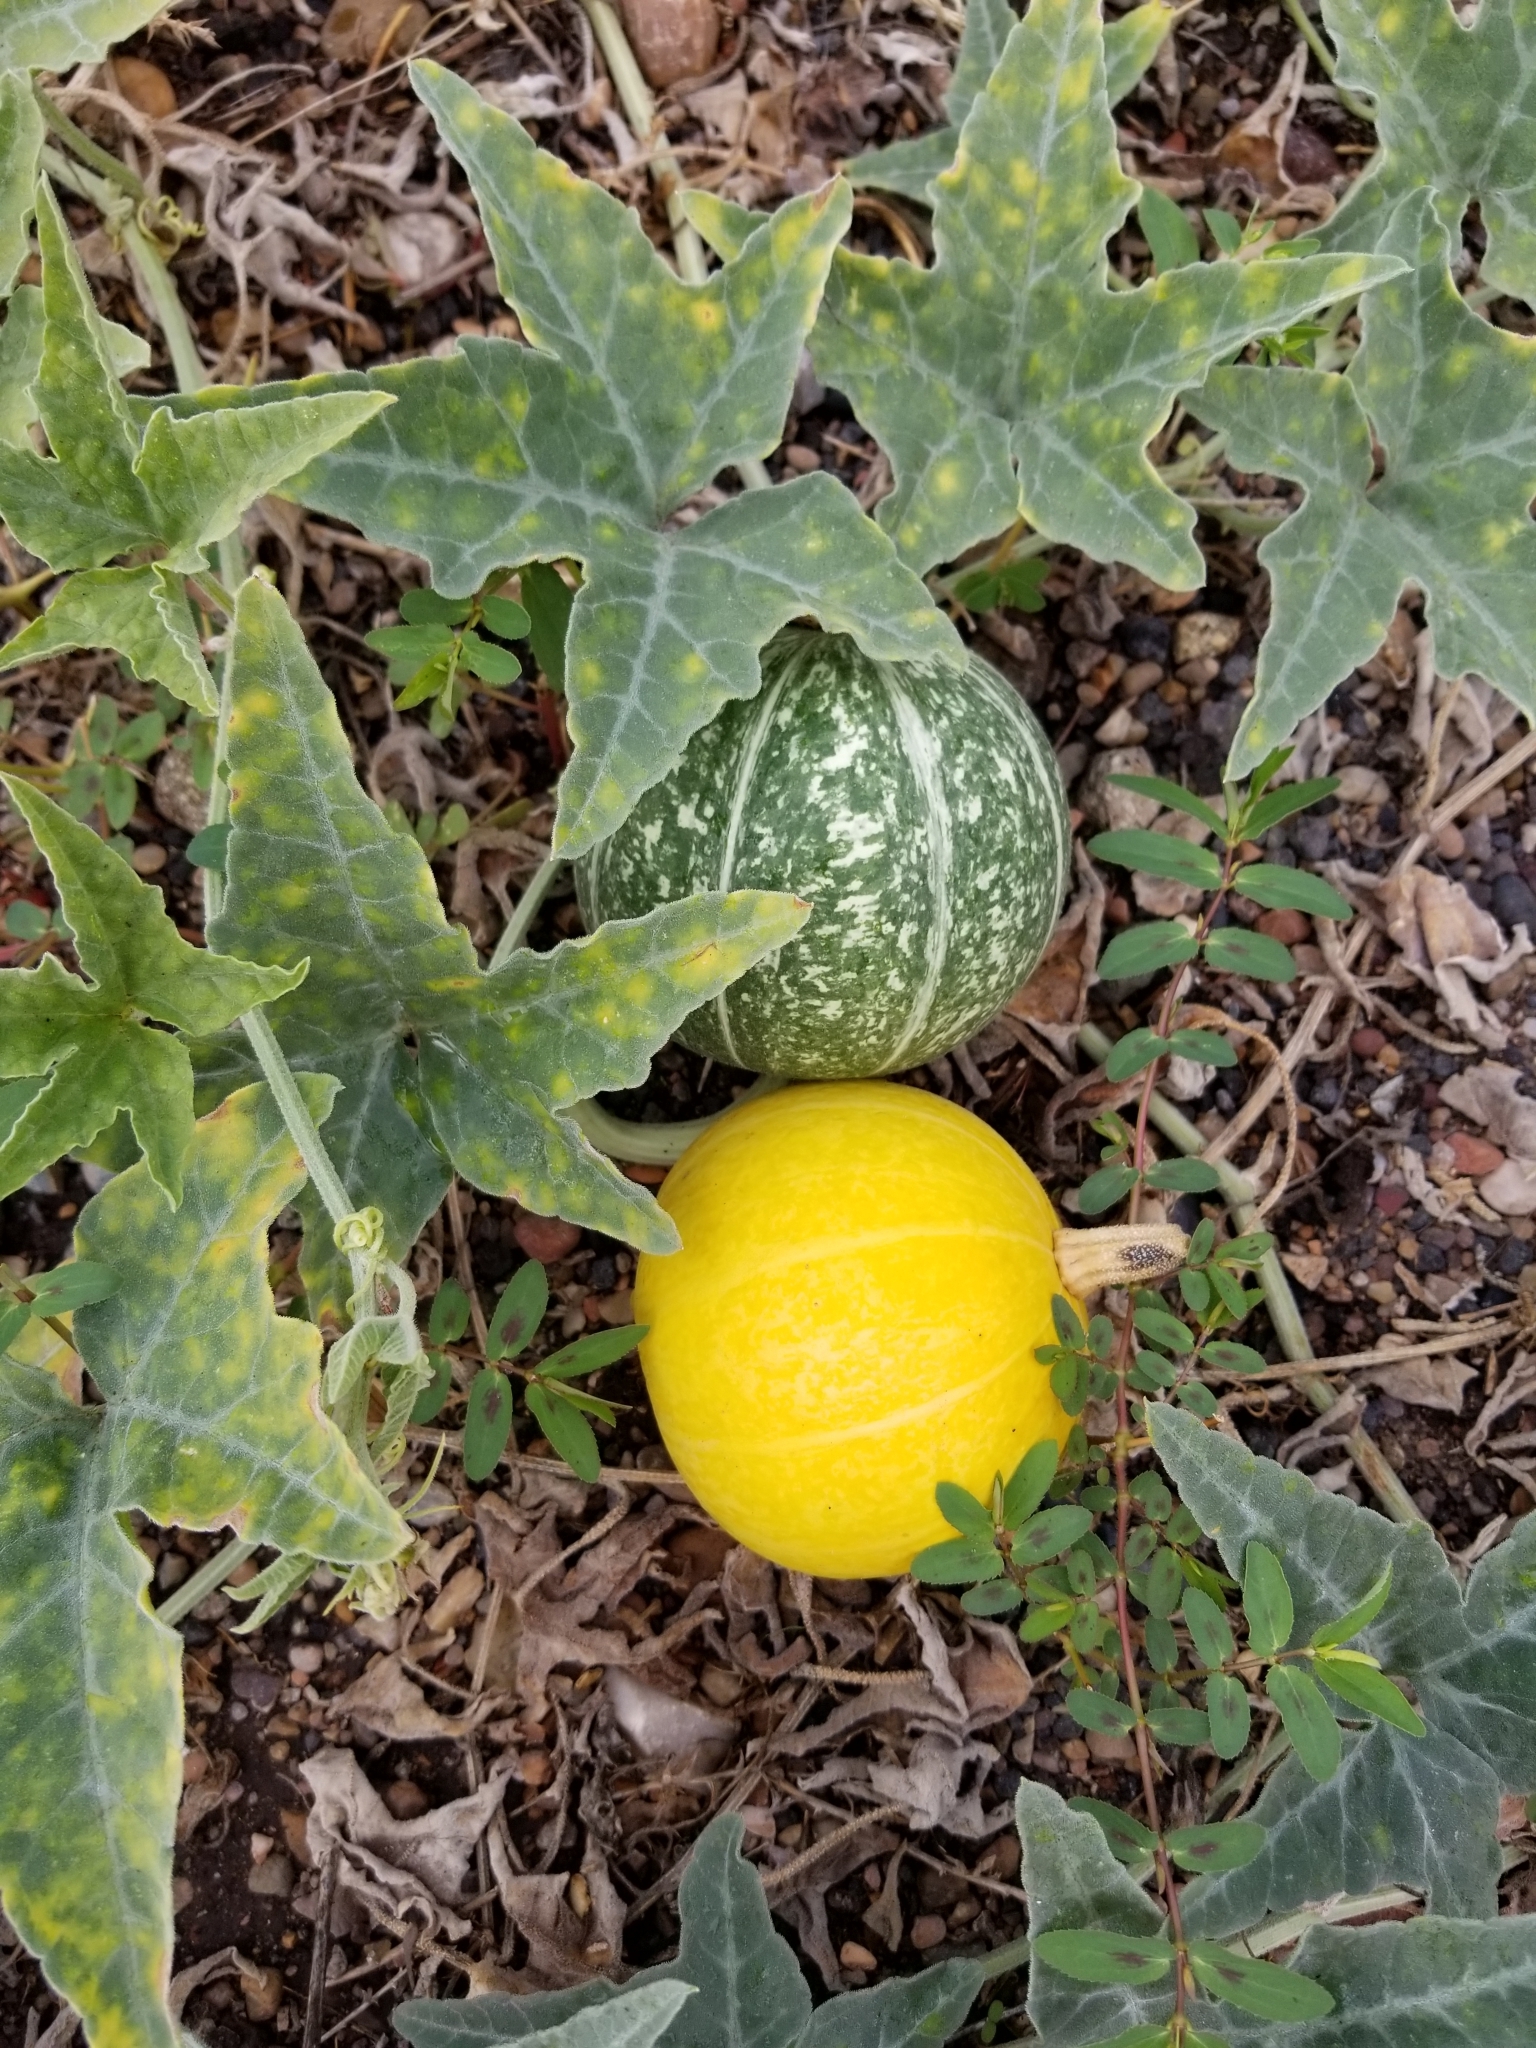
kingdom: Plantae
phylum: Tracheophyta
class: Magnoliopsida
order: Cucurbitales
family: Cucurbitaceae
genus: Cucurbita
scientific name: Cucurbita palmata
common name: Coyote-melon
